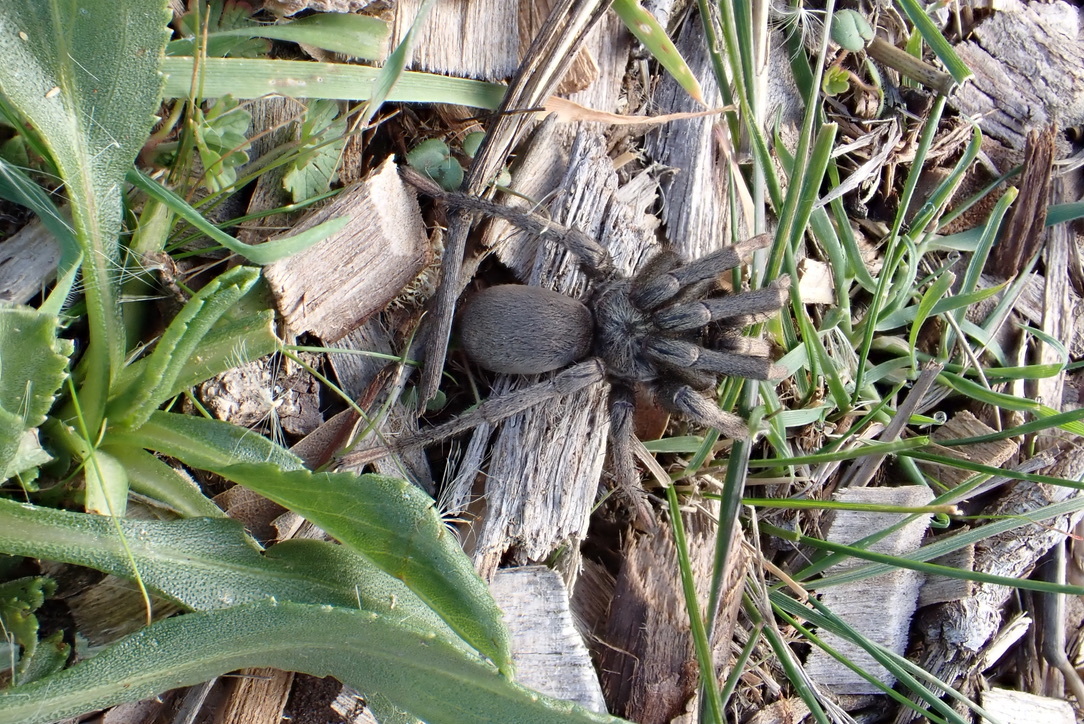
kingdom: Animalia
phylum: Arthropoda
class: Arachnida
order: Araneae
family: Nemesiidae
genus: Calisoga
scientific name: Calisoga longitarsis
